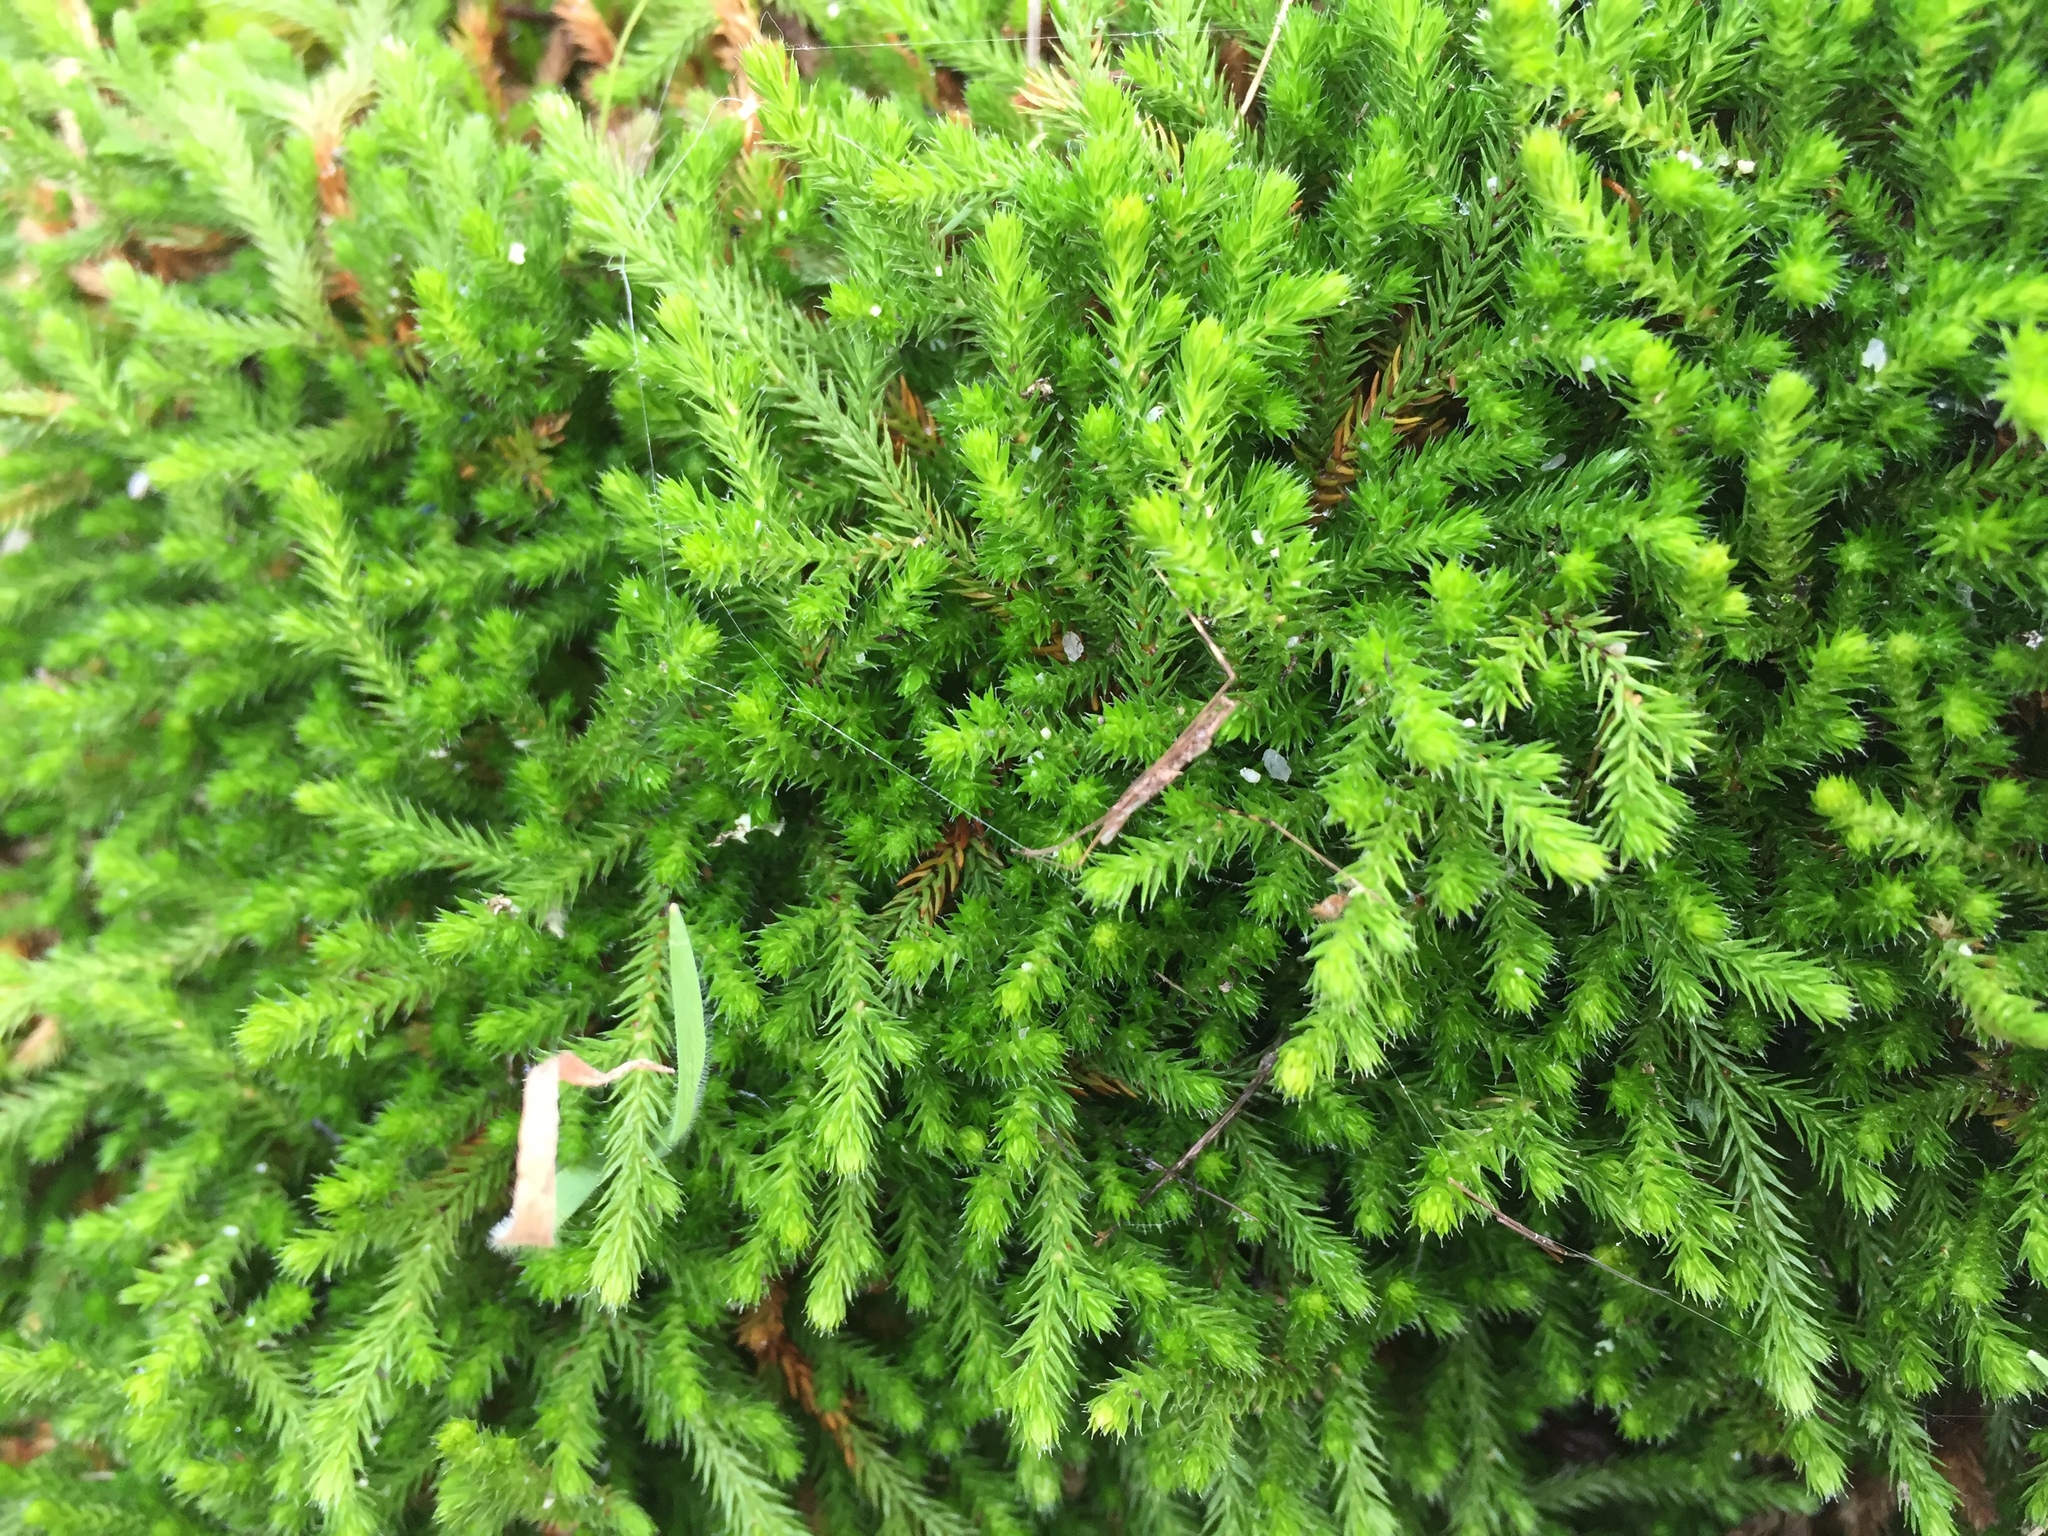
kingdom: Plantae
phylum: Tracheophyta
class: Lycopodiopsida
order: Selaginellales
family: Selaginellaceae
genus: Selaginella
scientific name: Selaginella wallacei
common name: Wallace's selaginella
